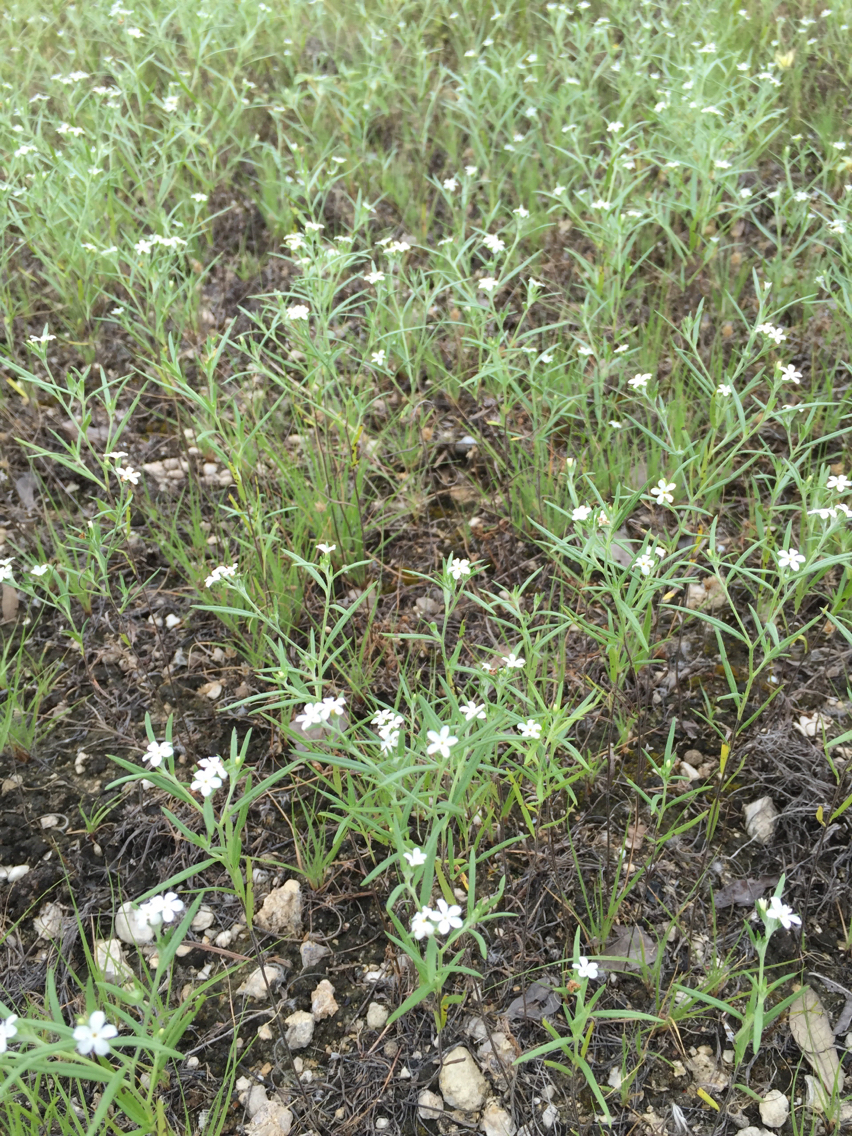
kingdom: Plantae
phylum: Tracheophyta
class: Magnoliopsida
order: Boraginales
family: Heliotropiaceae
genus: Euploca
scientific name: Euploca tenella
